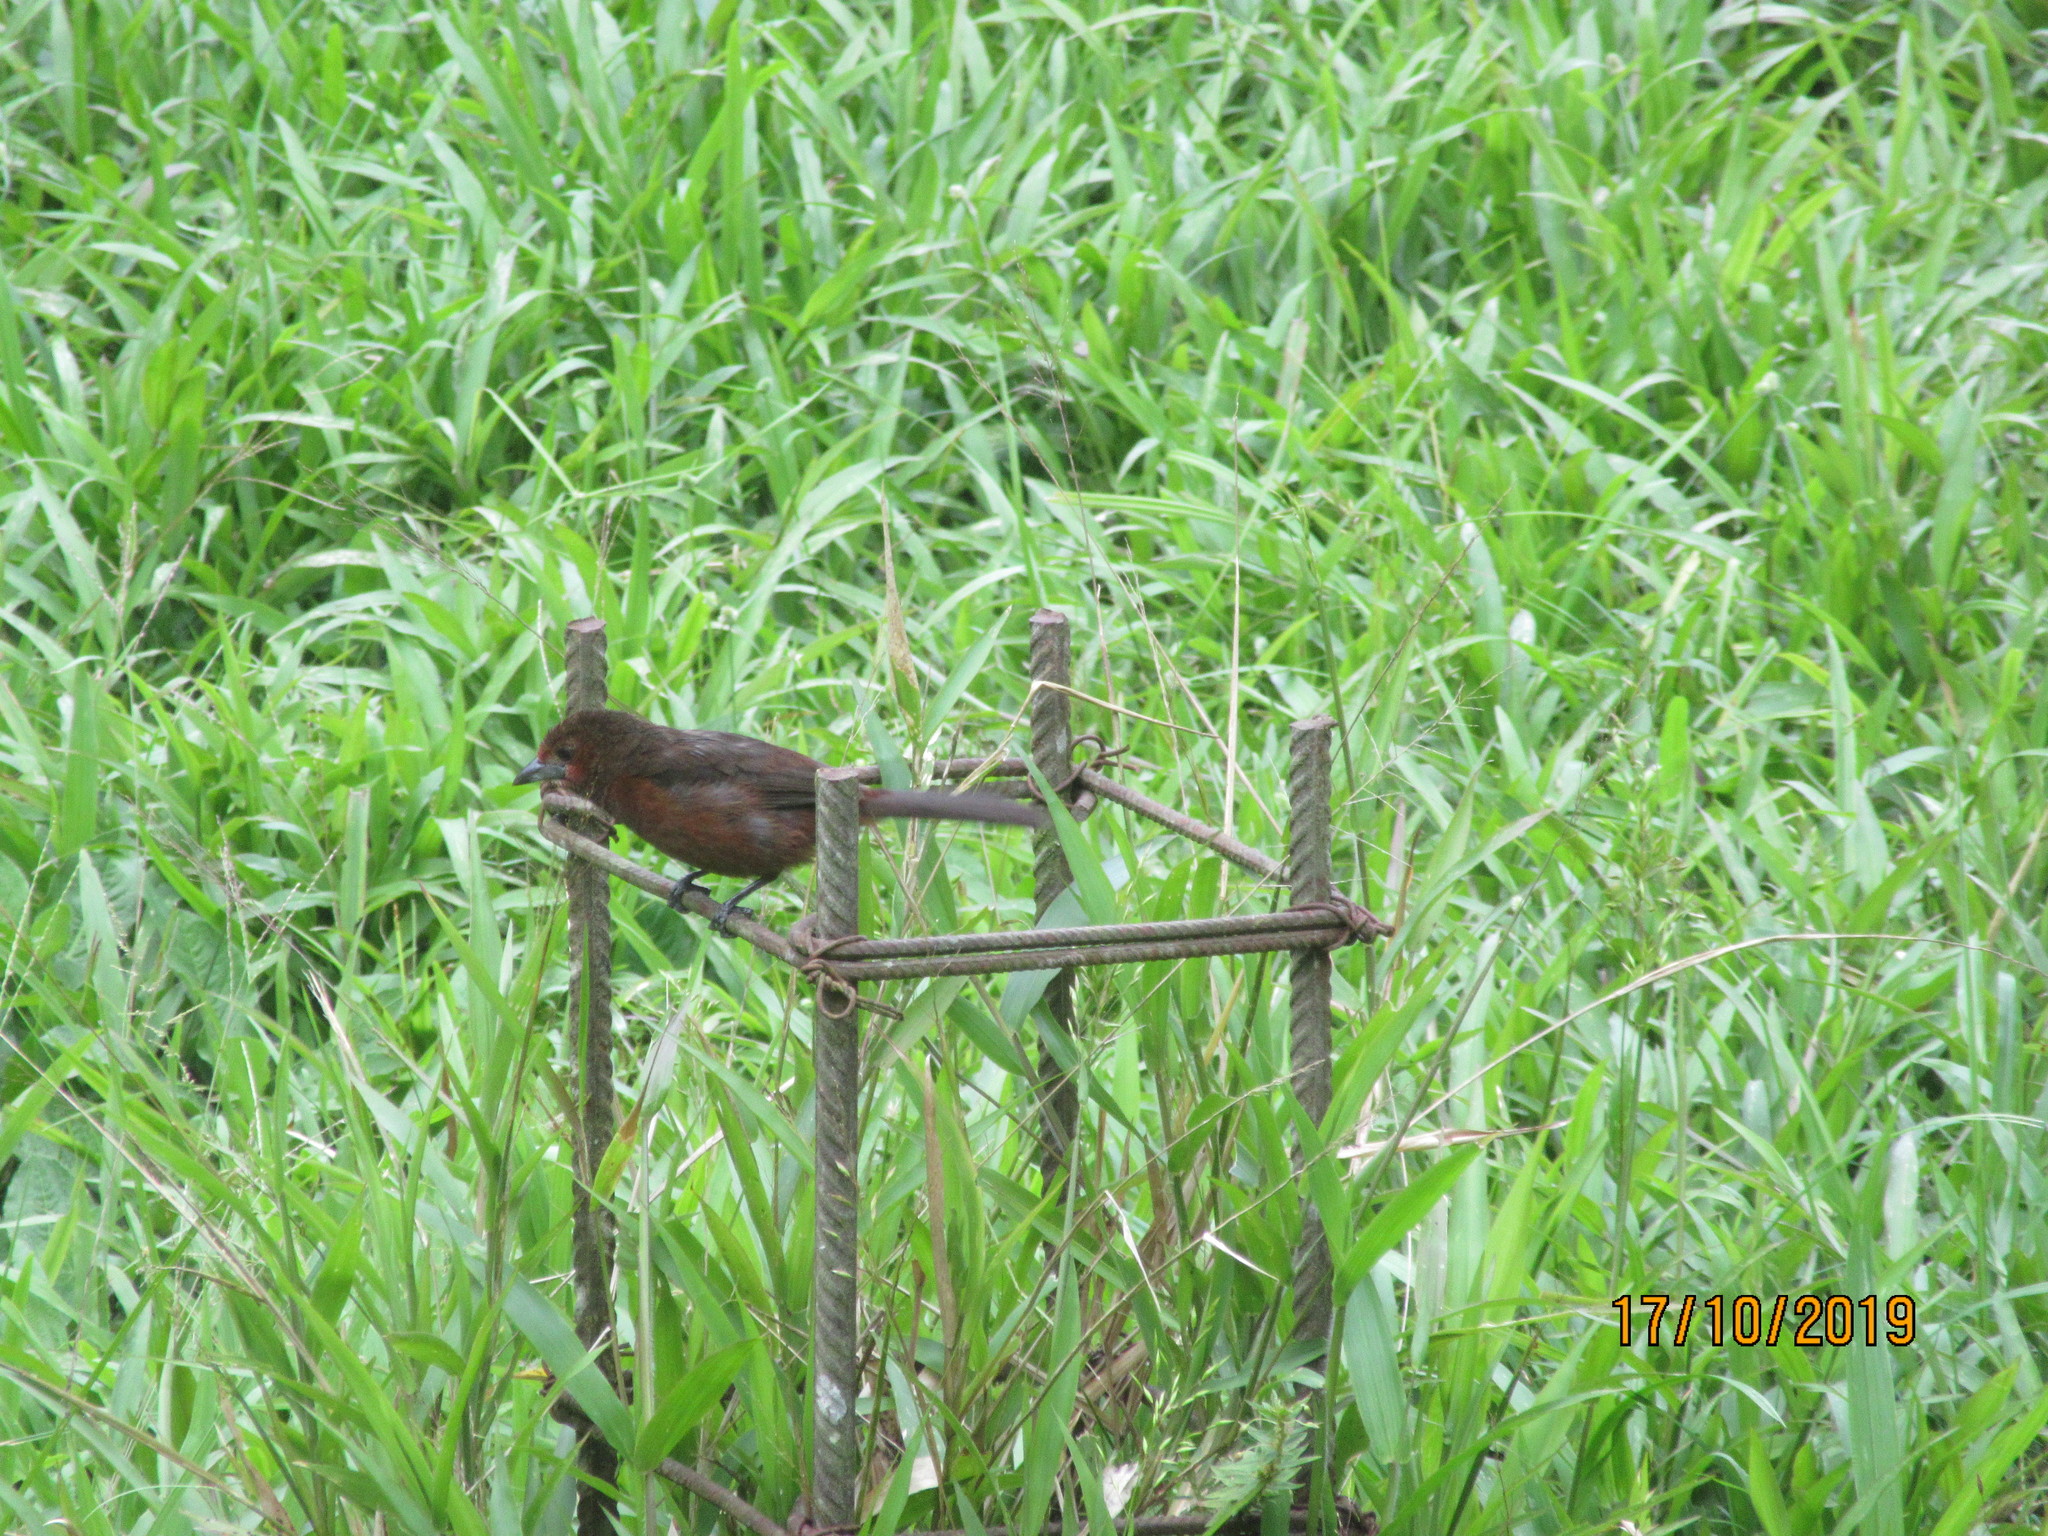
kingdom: Animalia
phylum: Chordata
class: Aves
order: Passeriformes
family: Thraupidae
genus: Ramphocelus
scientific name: Ramphocelus carbo
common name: Silver-beaked tanager
